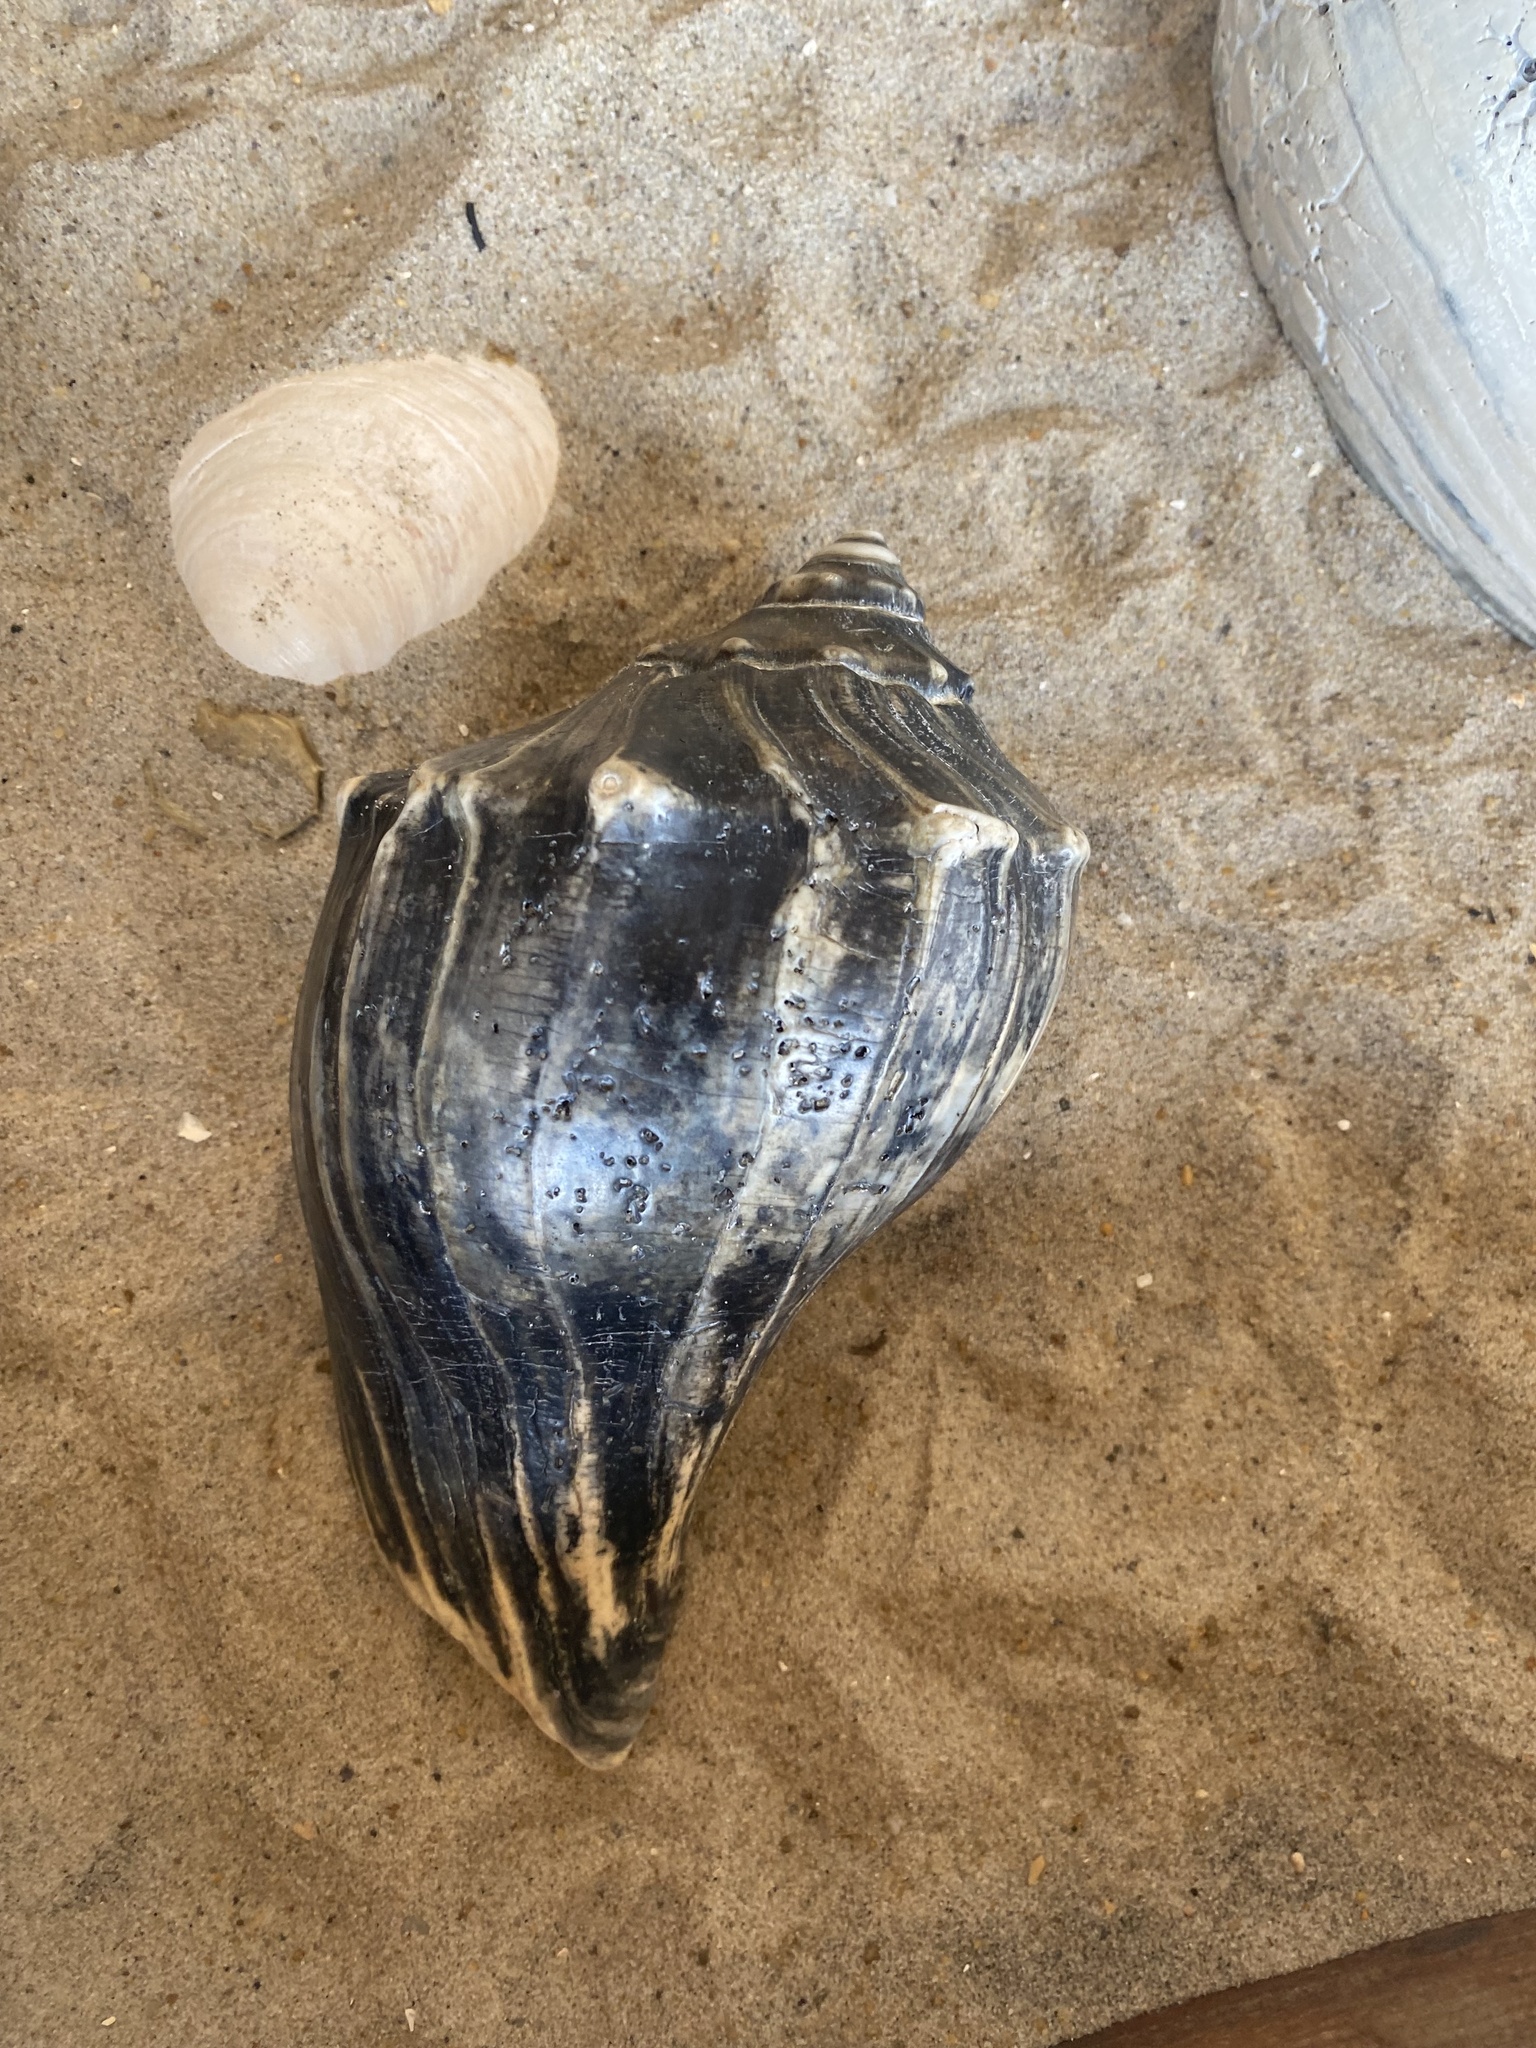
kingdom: Animalia
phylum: Mollusca
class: Gastropoda
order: Neogastropoda
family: Busyconidae
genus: Busycon
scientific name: Busycon carica
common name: Knobbed whelk
